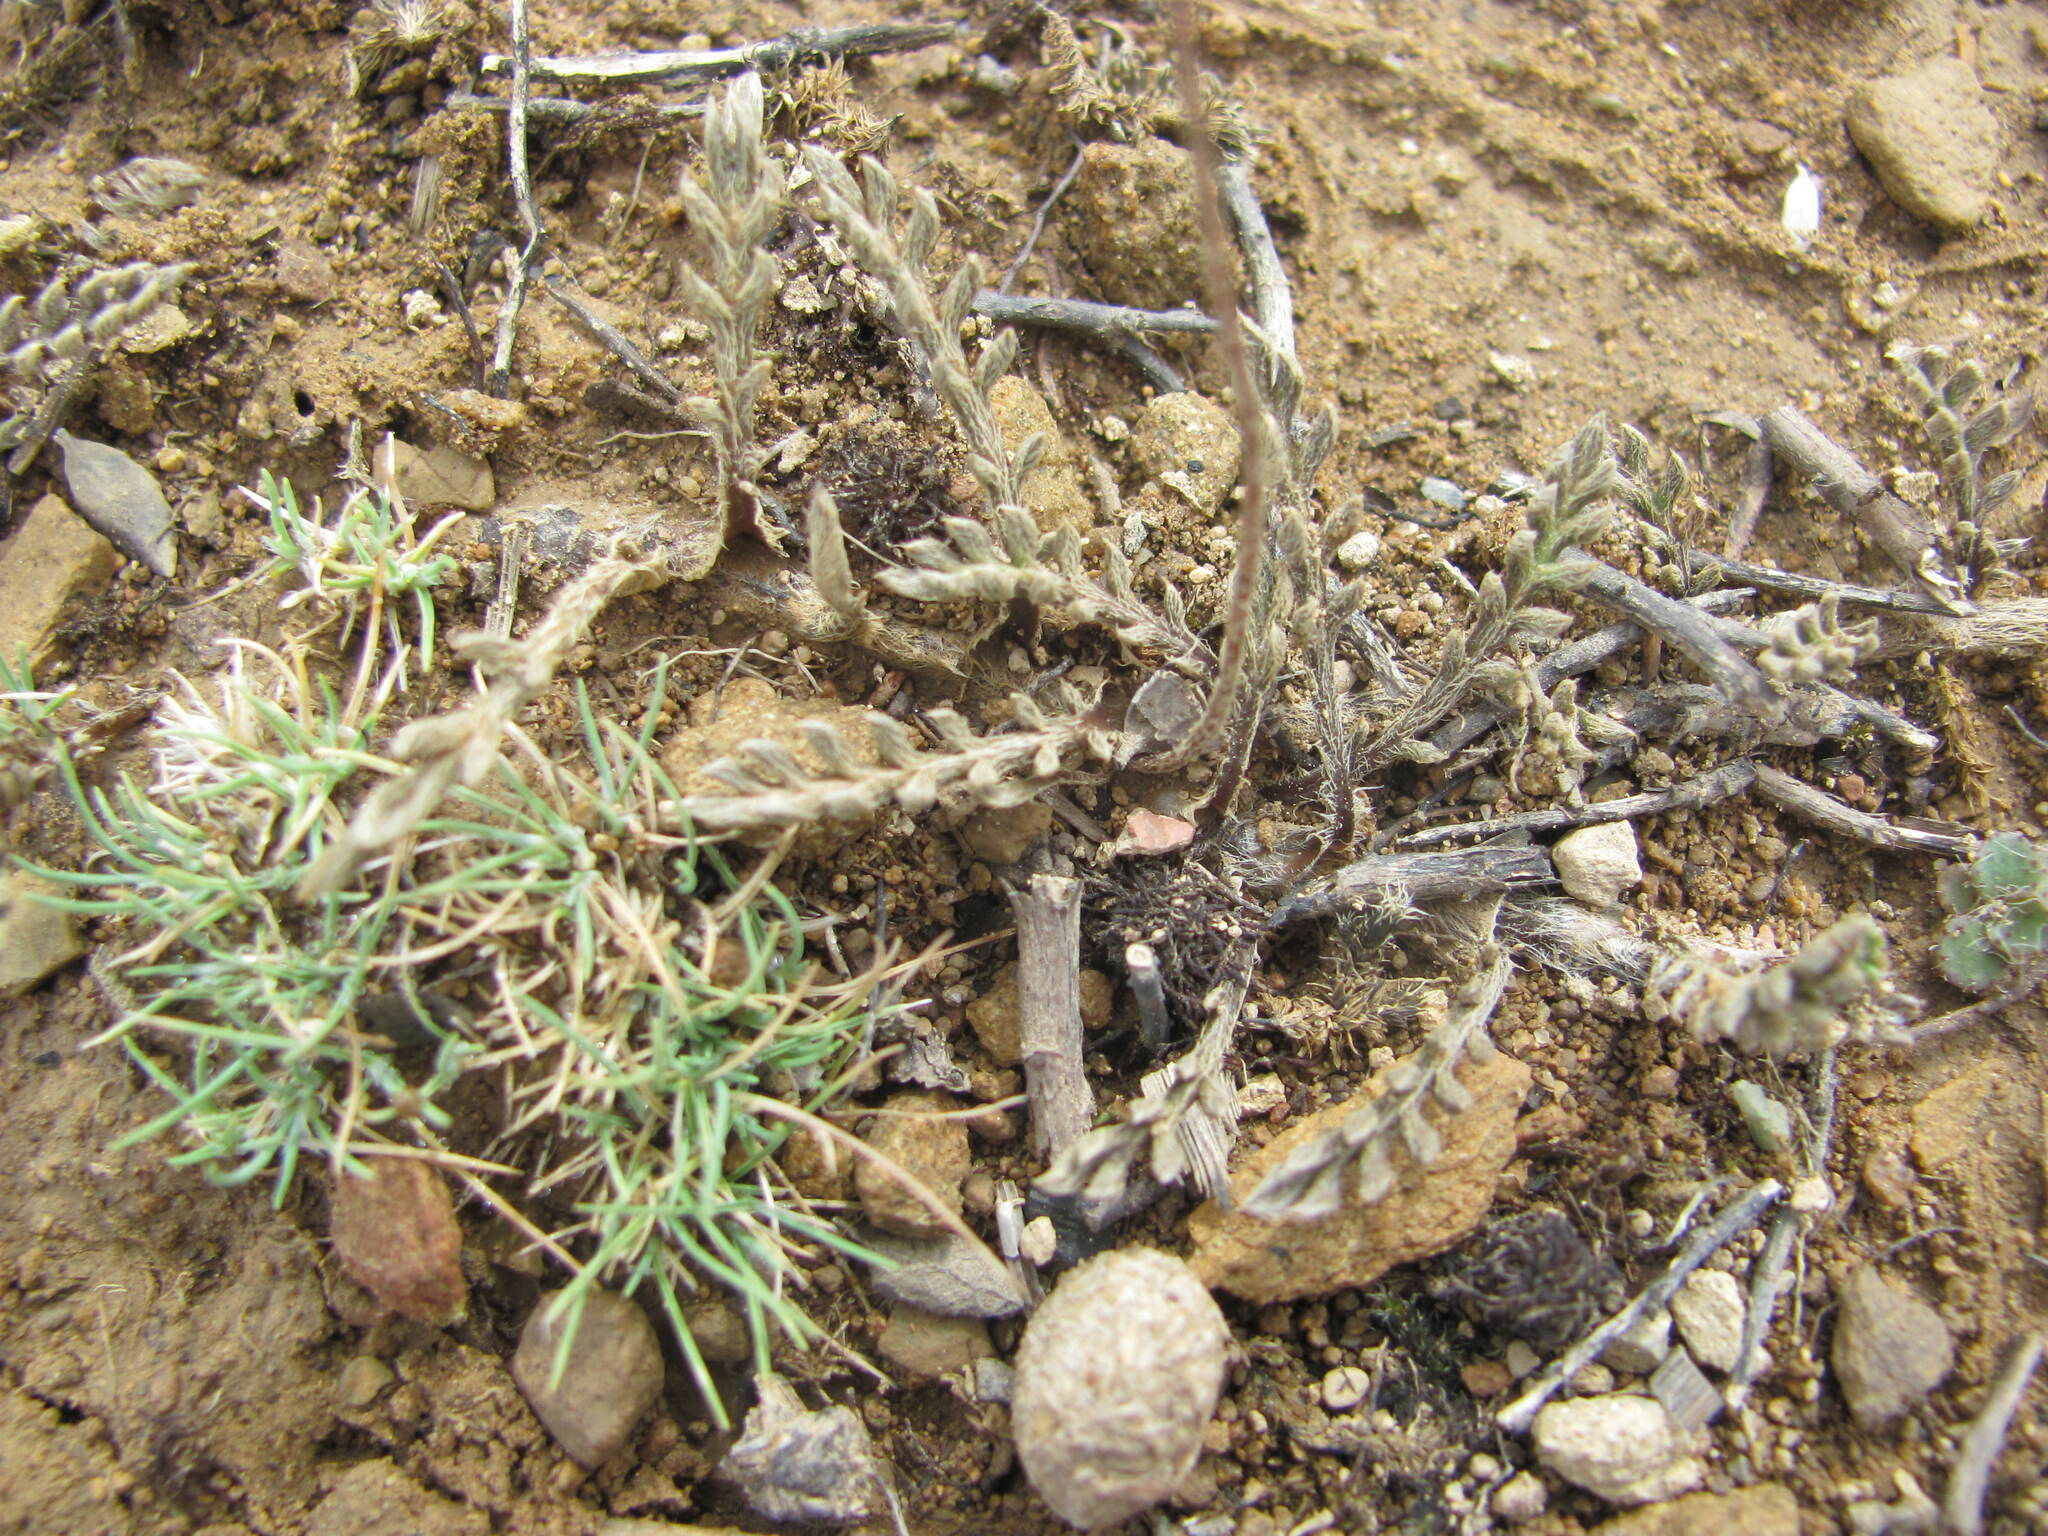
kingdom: Plantae
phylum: Tracheophyta
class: Magnoliopsida
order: Asterales
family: Asteraceae
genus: Leptinella
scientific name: Leptinella pectinata
